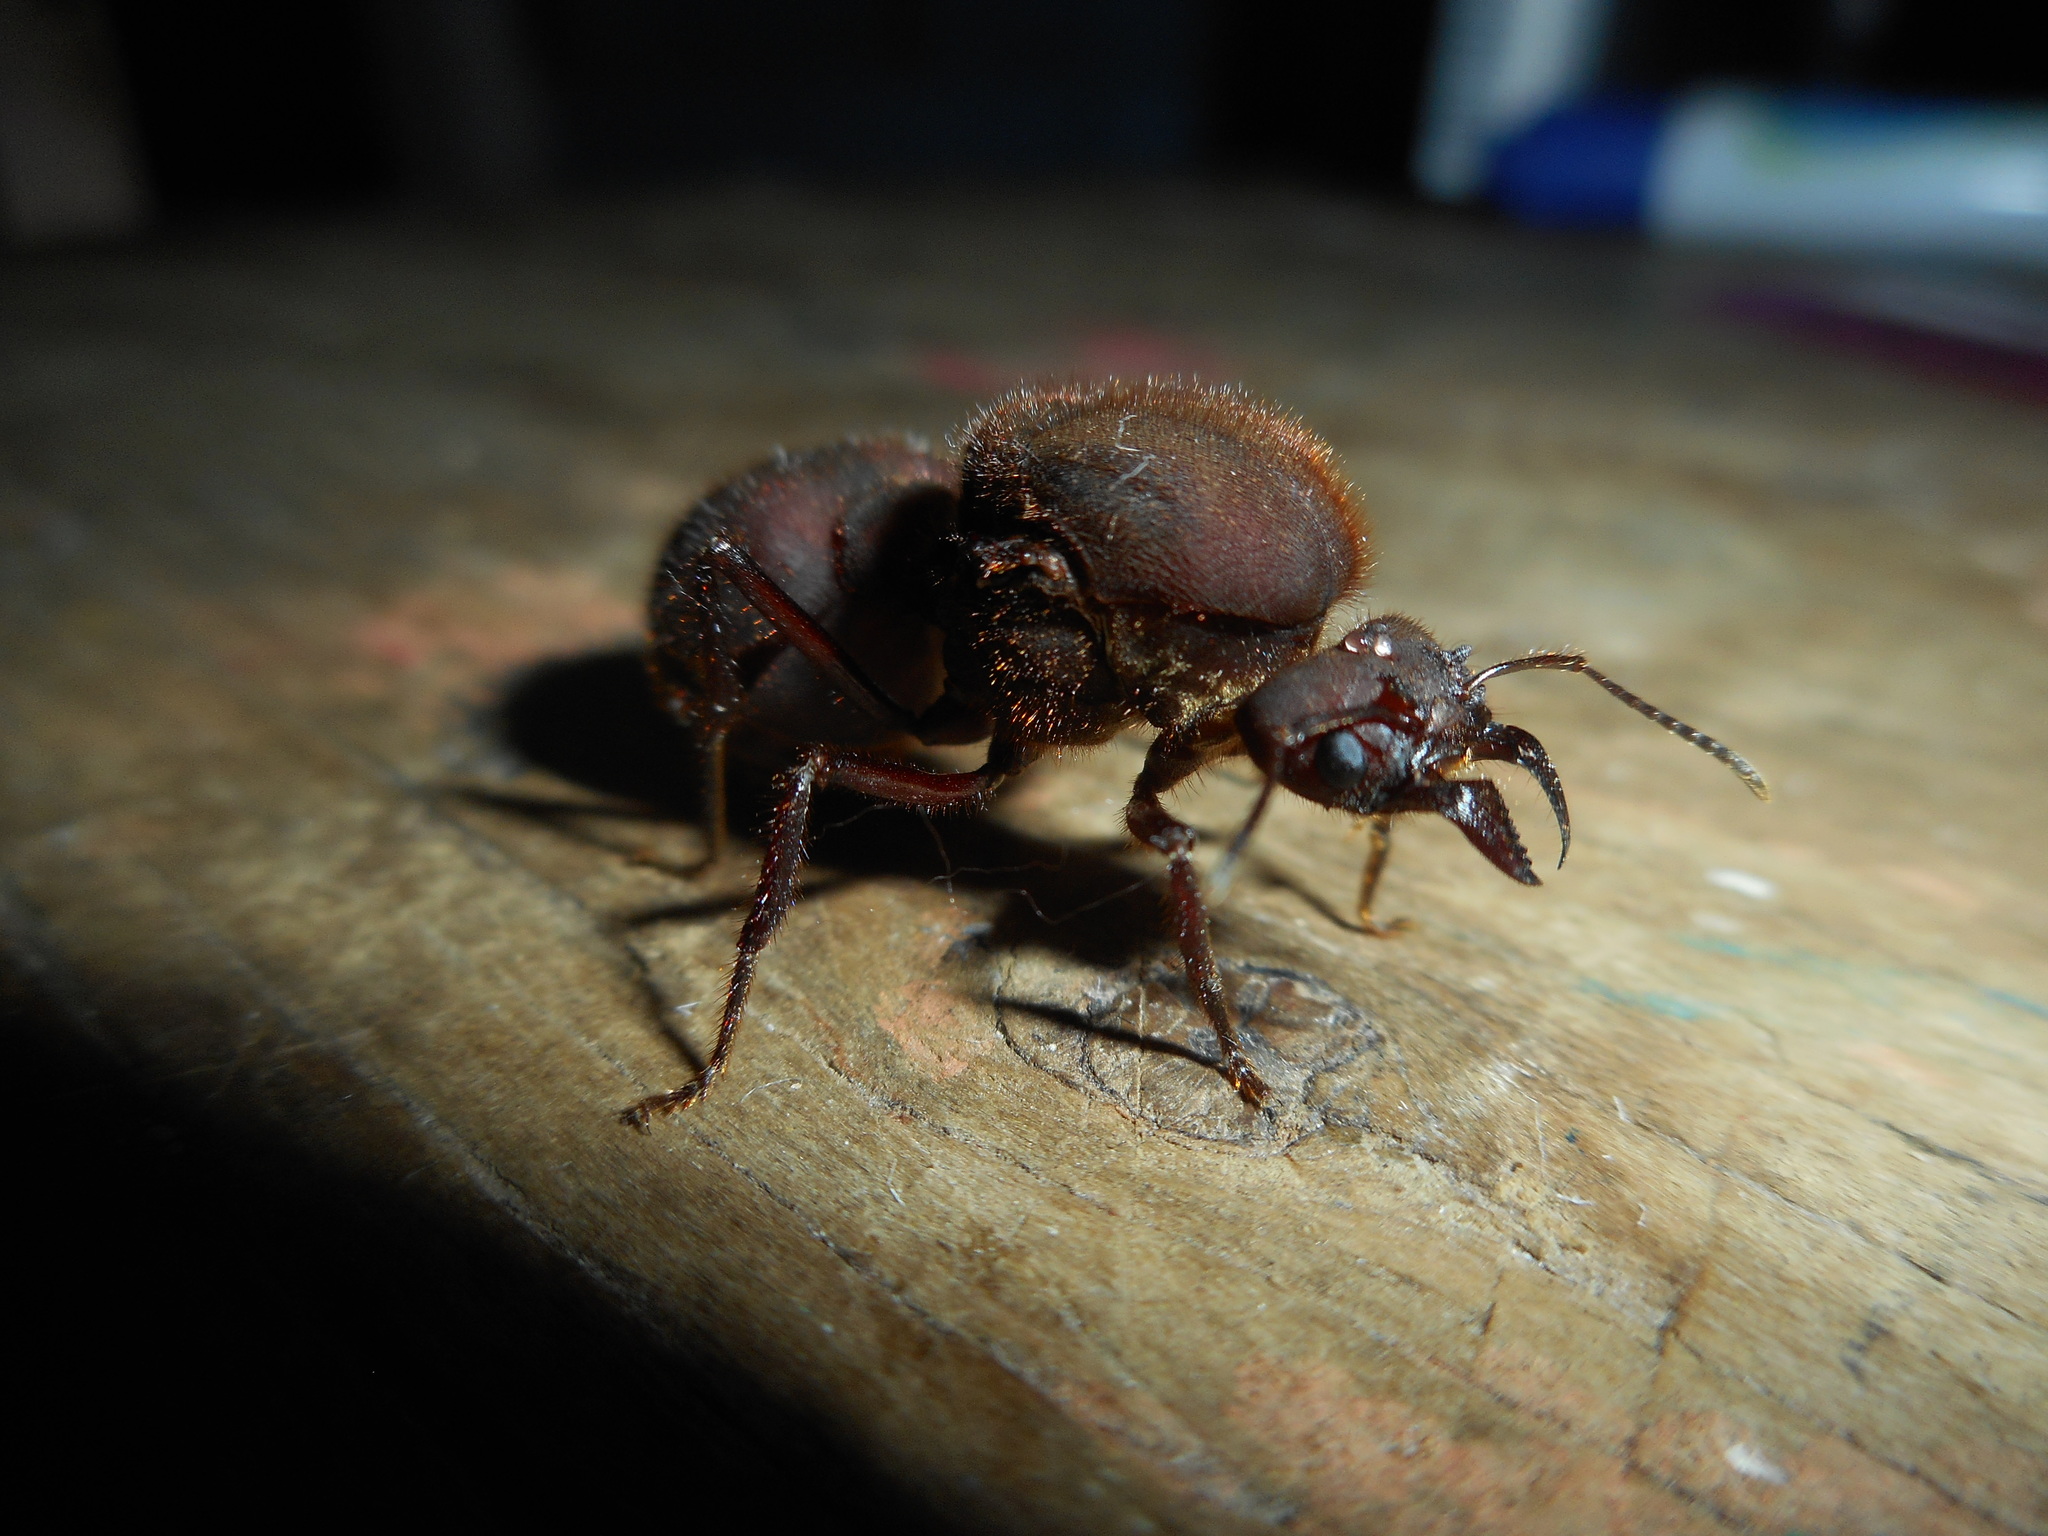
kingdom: Animalia
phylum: Arthropoda
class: Insecta
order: Hymenoptera
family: Formicidae
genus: Atta
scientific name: Atta mexicana
